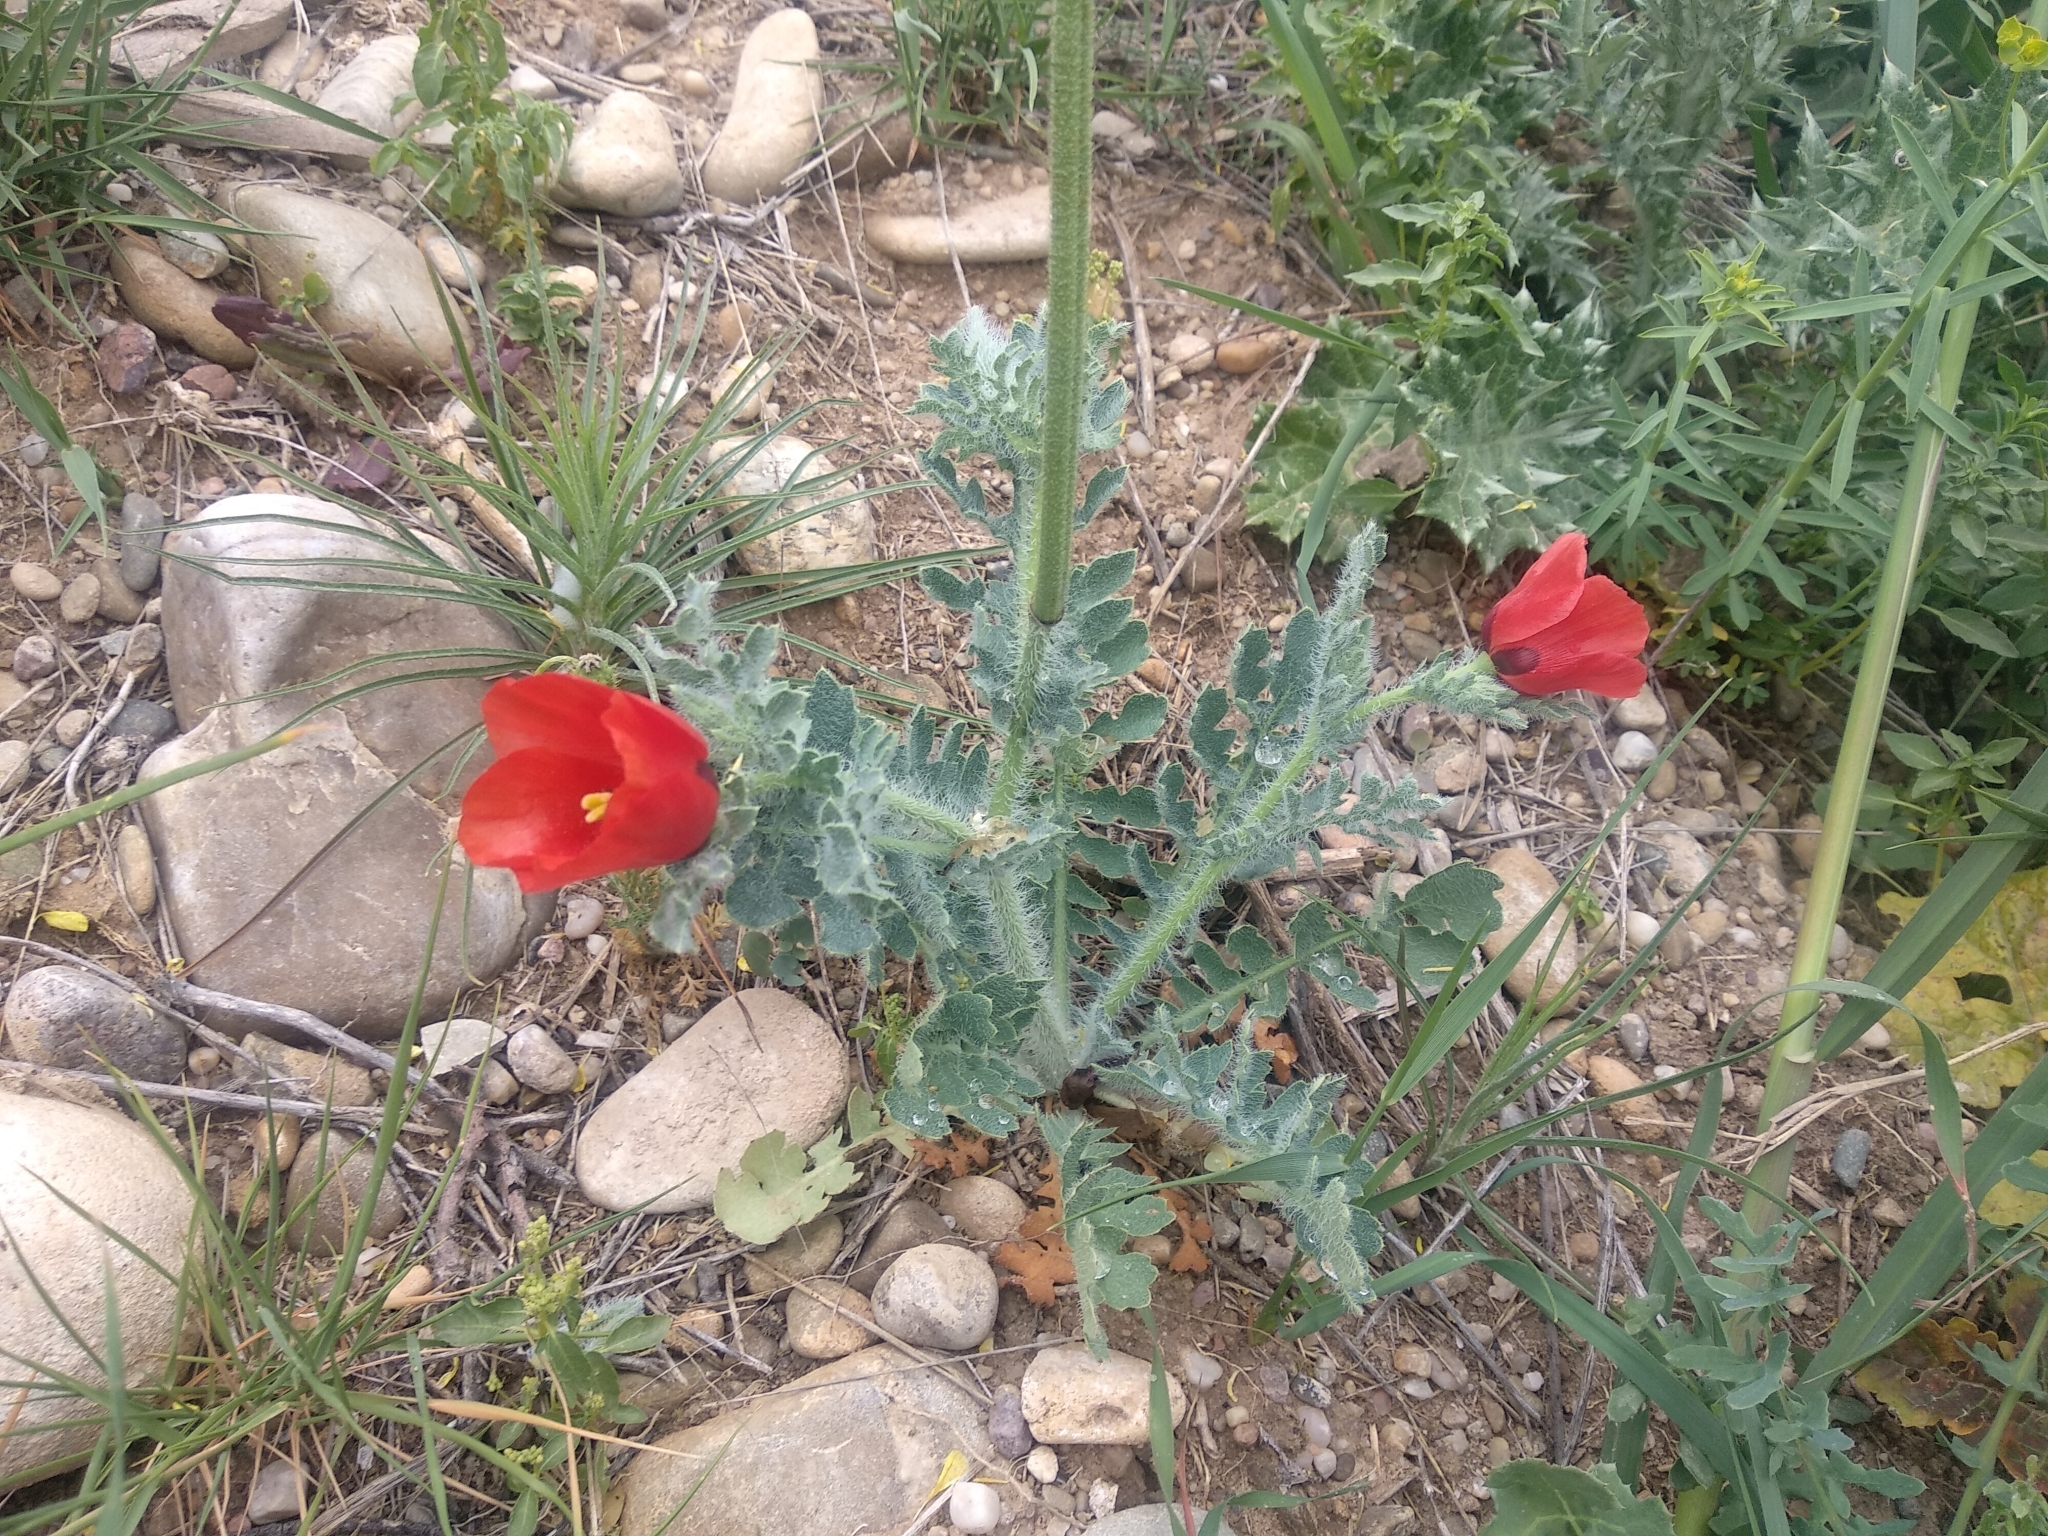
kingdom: Plantae
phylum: Tracheophyta
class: Magnoliopsida
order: Ranunculales
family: Papaveraceae
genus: Glaucium
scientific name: Glaucium corniculatum
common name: Red horned-poppy
